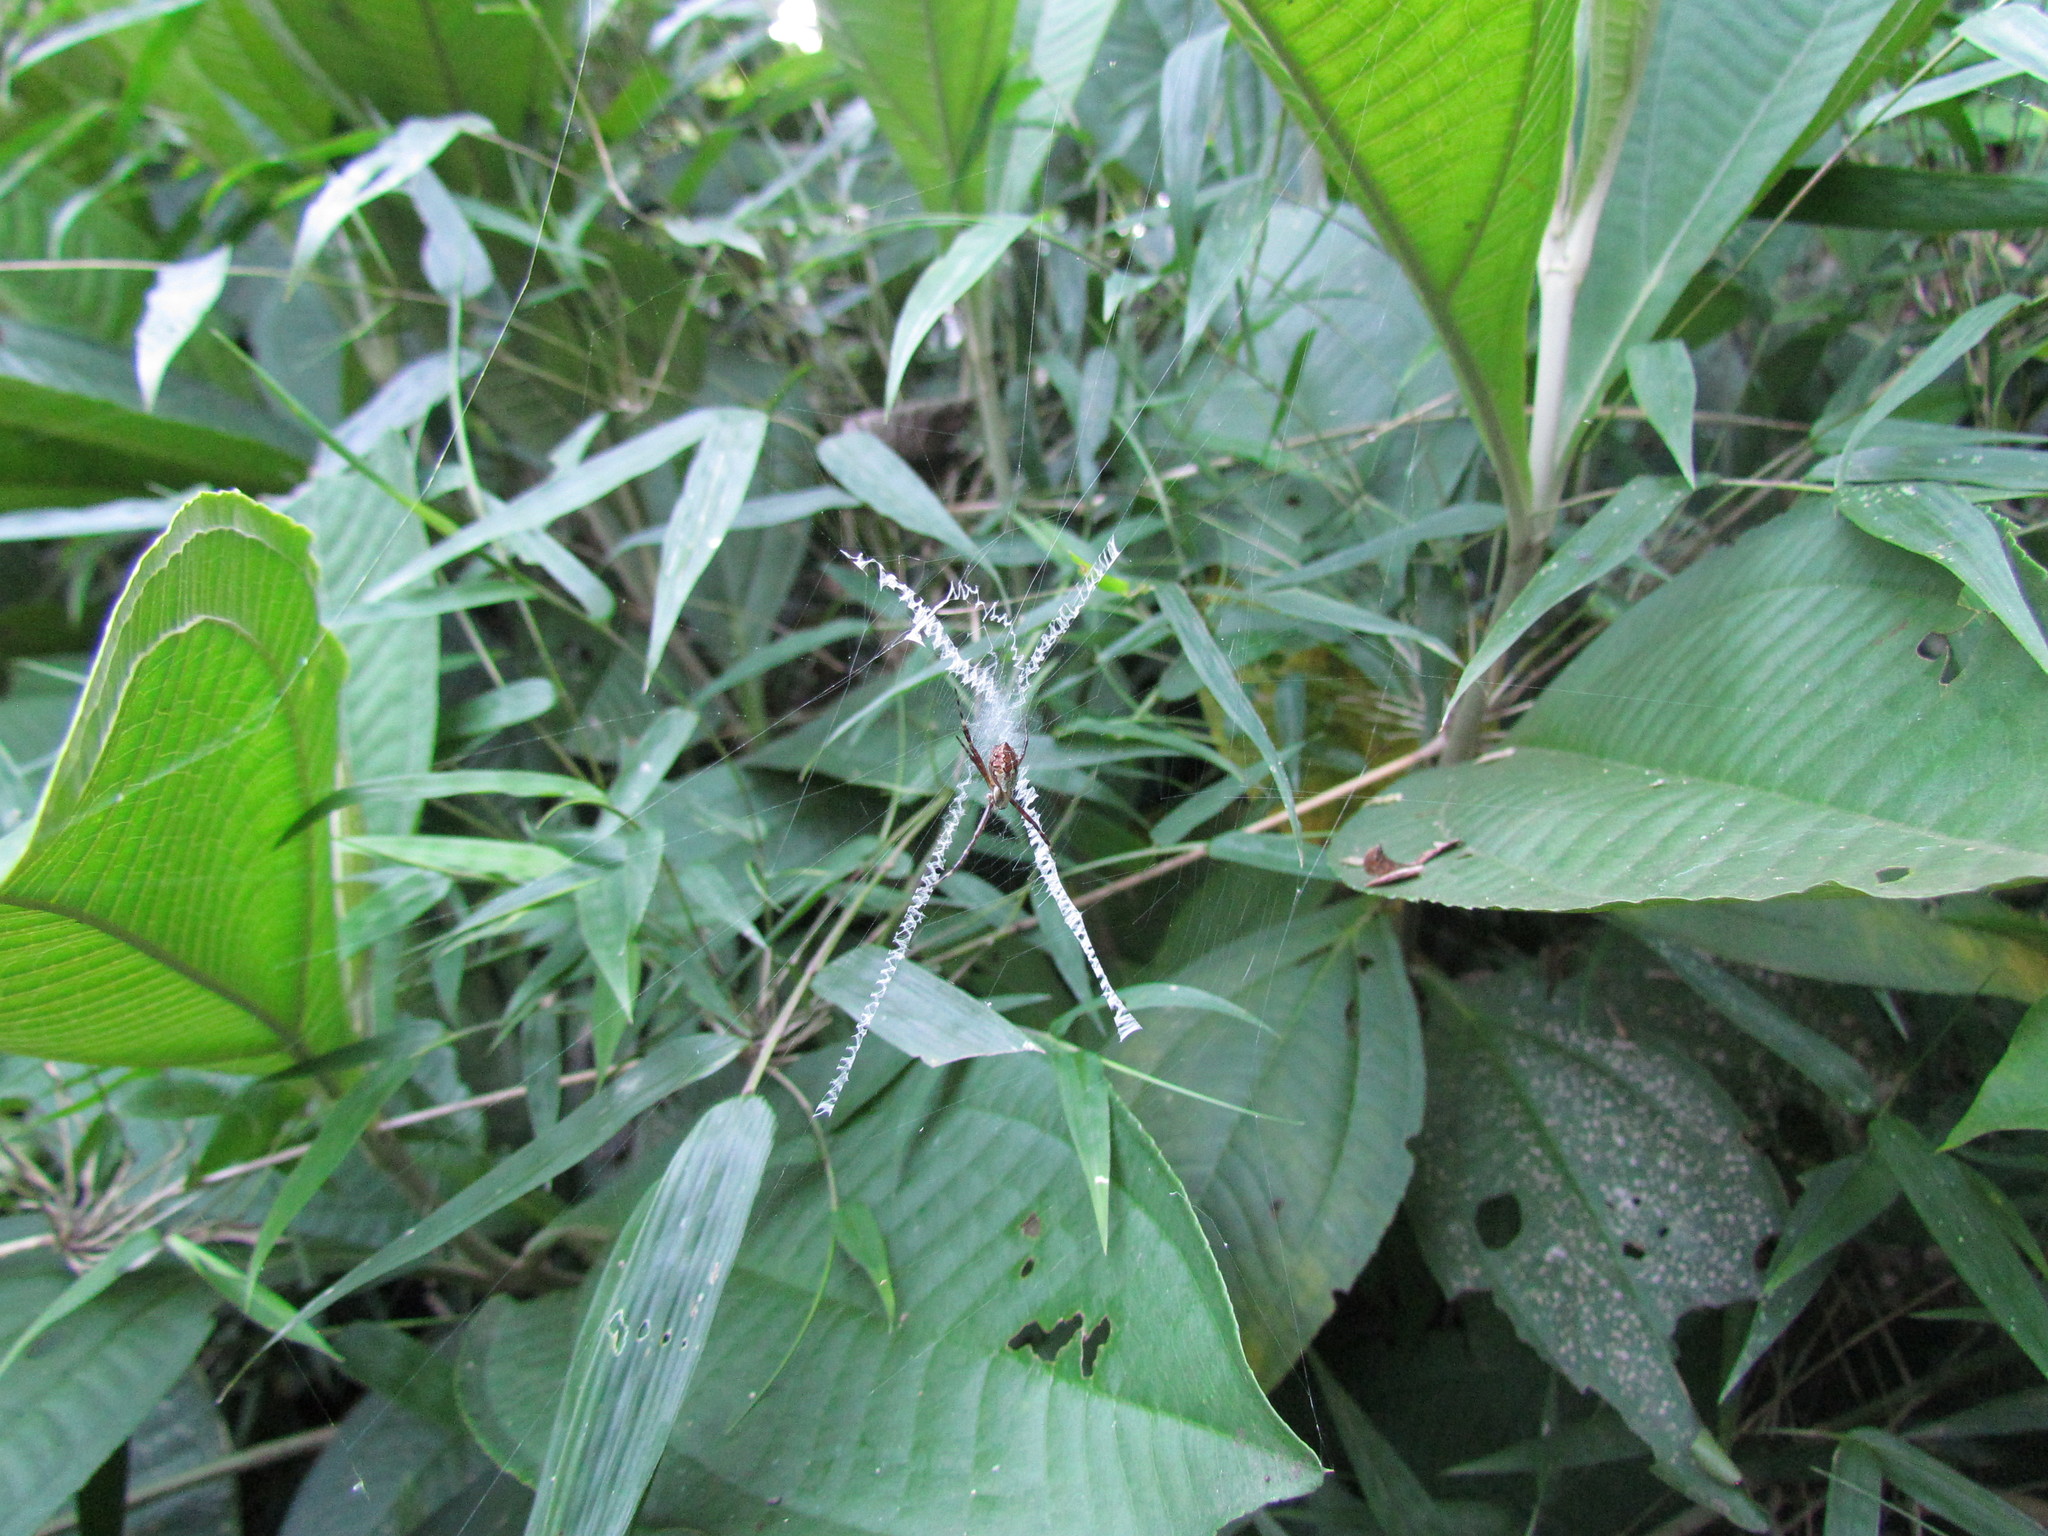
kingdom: Animalia
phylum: Arthropoda
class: Arachnida
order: Araneae
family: Araneidae
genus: Argiope
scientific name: Argiope argentata
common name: Orb weavers
